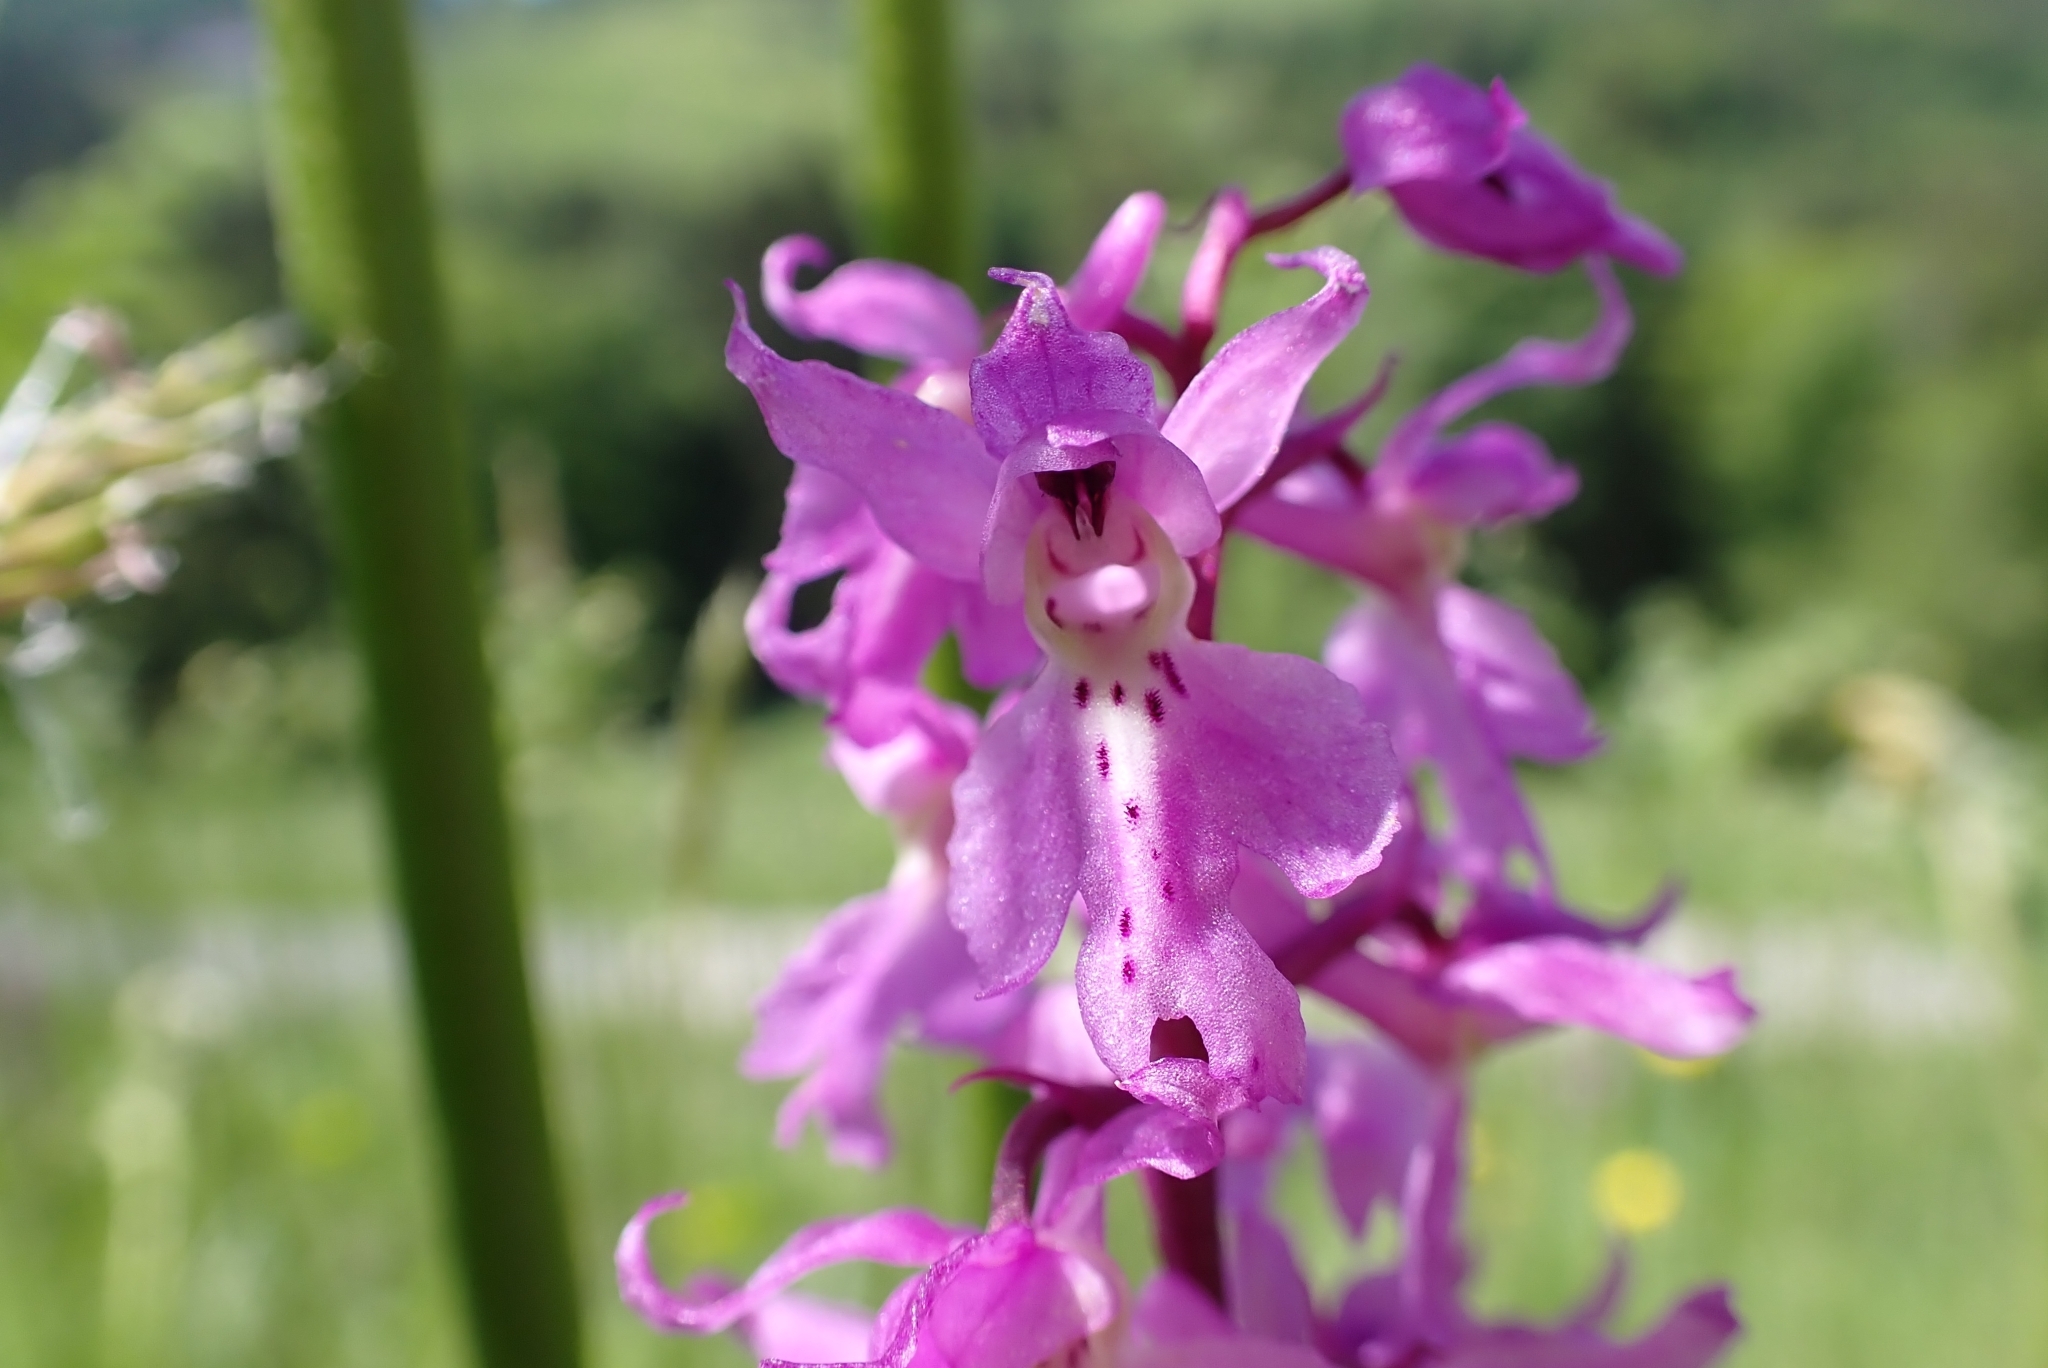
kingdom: Plantae
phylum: Tracheophyta
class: Liliopsida
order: Asparagales
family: Orchidaceae
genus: Orchis
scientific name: Orchis mascula
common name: Early-purple orchid
